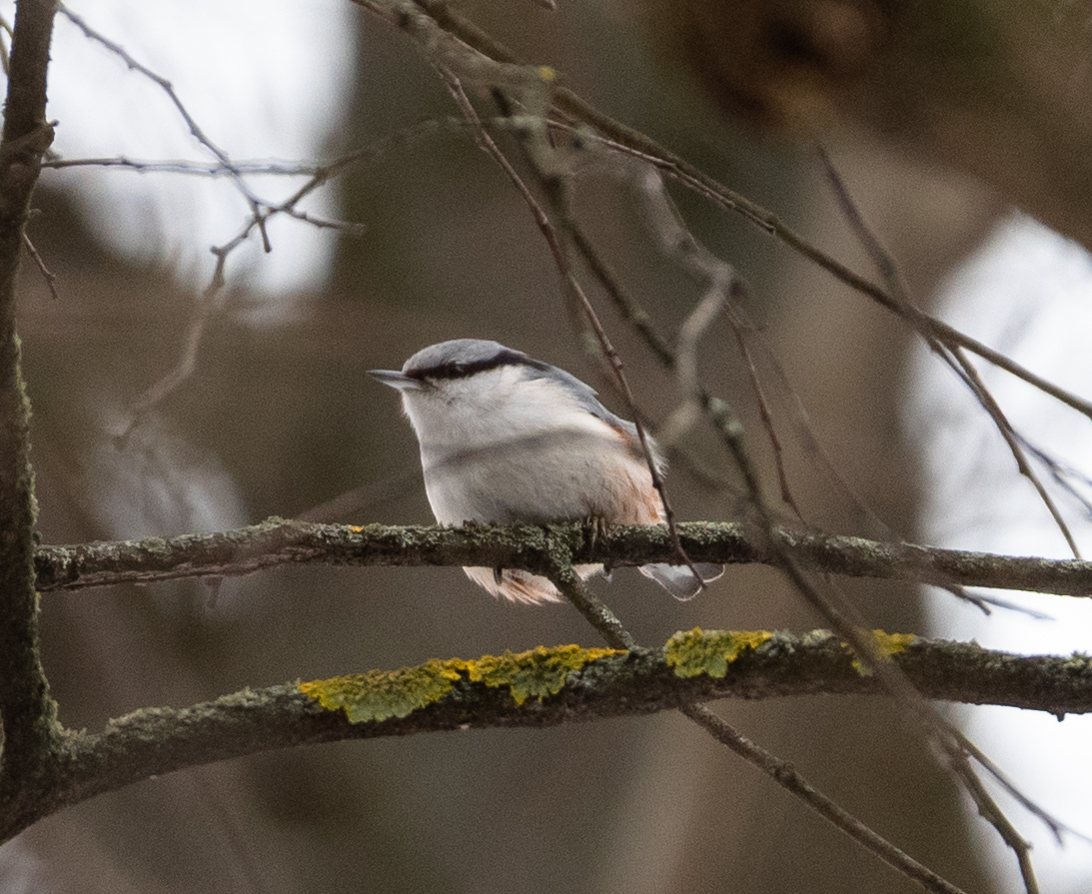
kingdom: Animalia
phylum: Chordata
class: Aves
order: Passeriformes
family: Sittidae
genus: Sitta
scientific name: Sitta europaea
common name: Eurasian nuthatch
